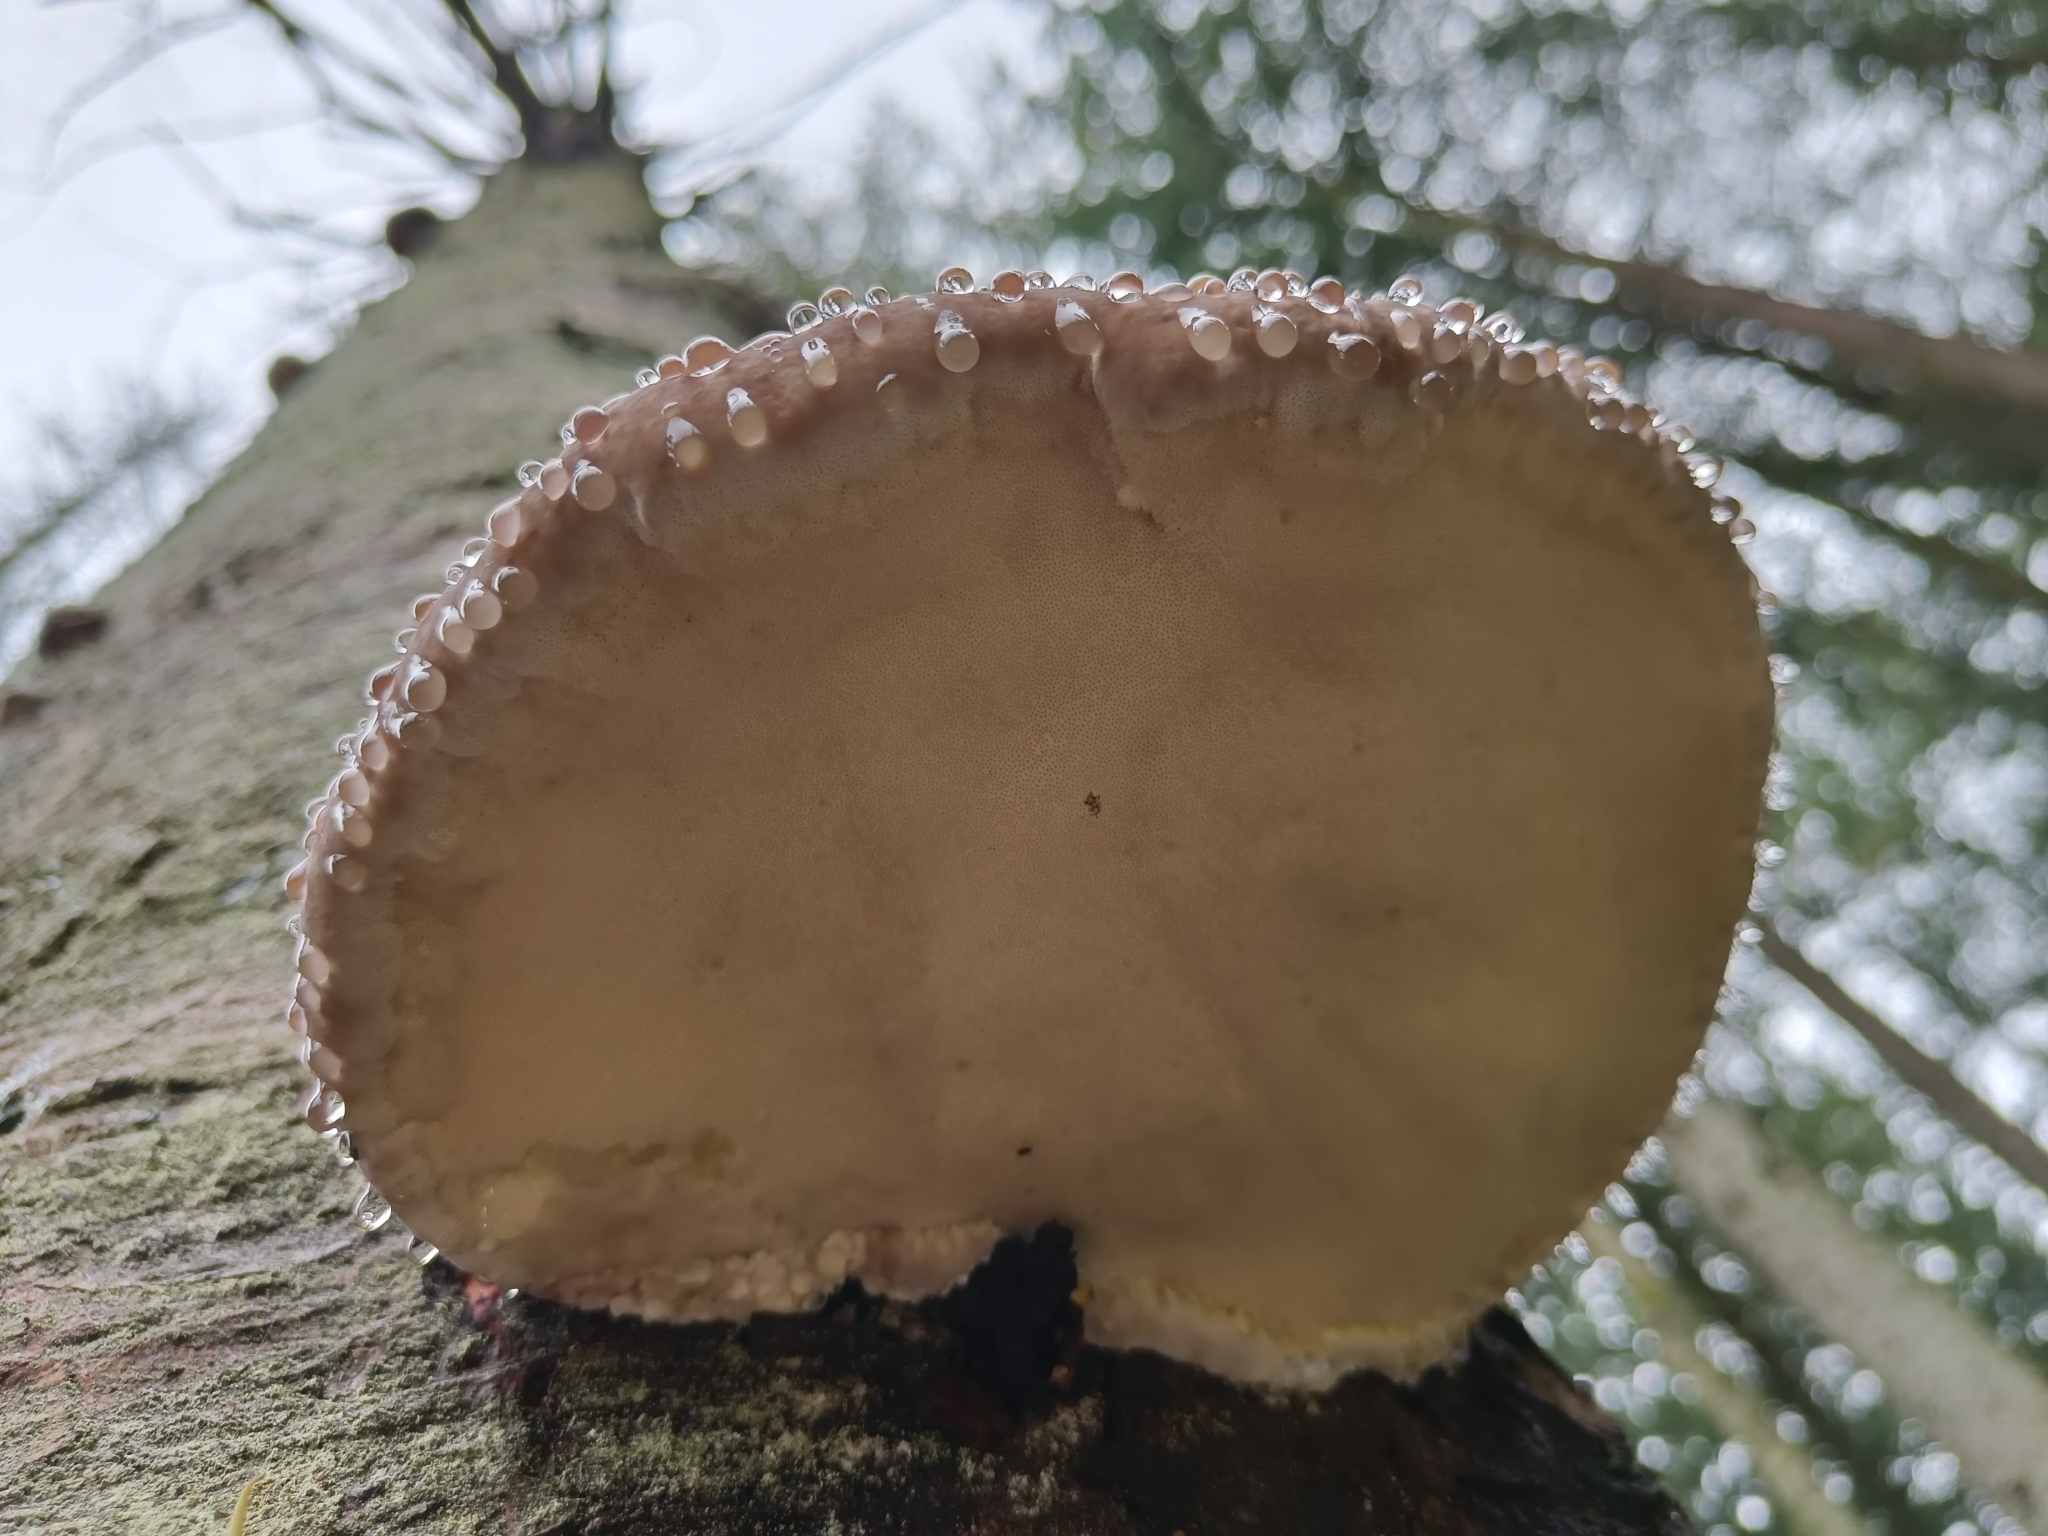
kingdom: Fungi
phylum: Basidiomycota
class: Agaricomycetes
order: Polyporales
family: Fomitopsidaceae
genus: Fomitopsis
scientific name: Fomitopsis pinicola
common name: Red-belted bracket
